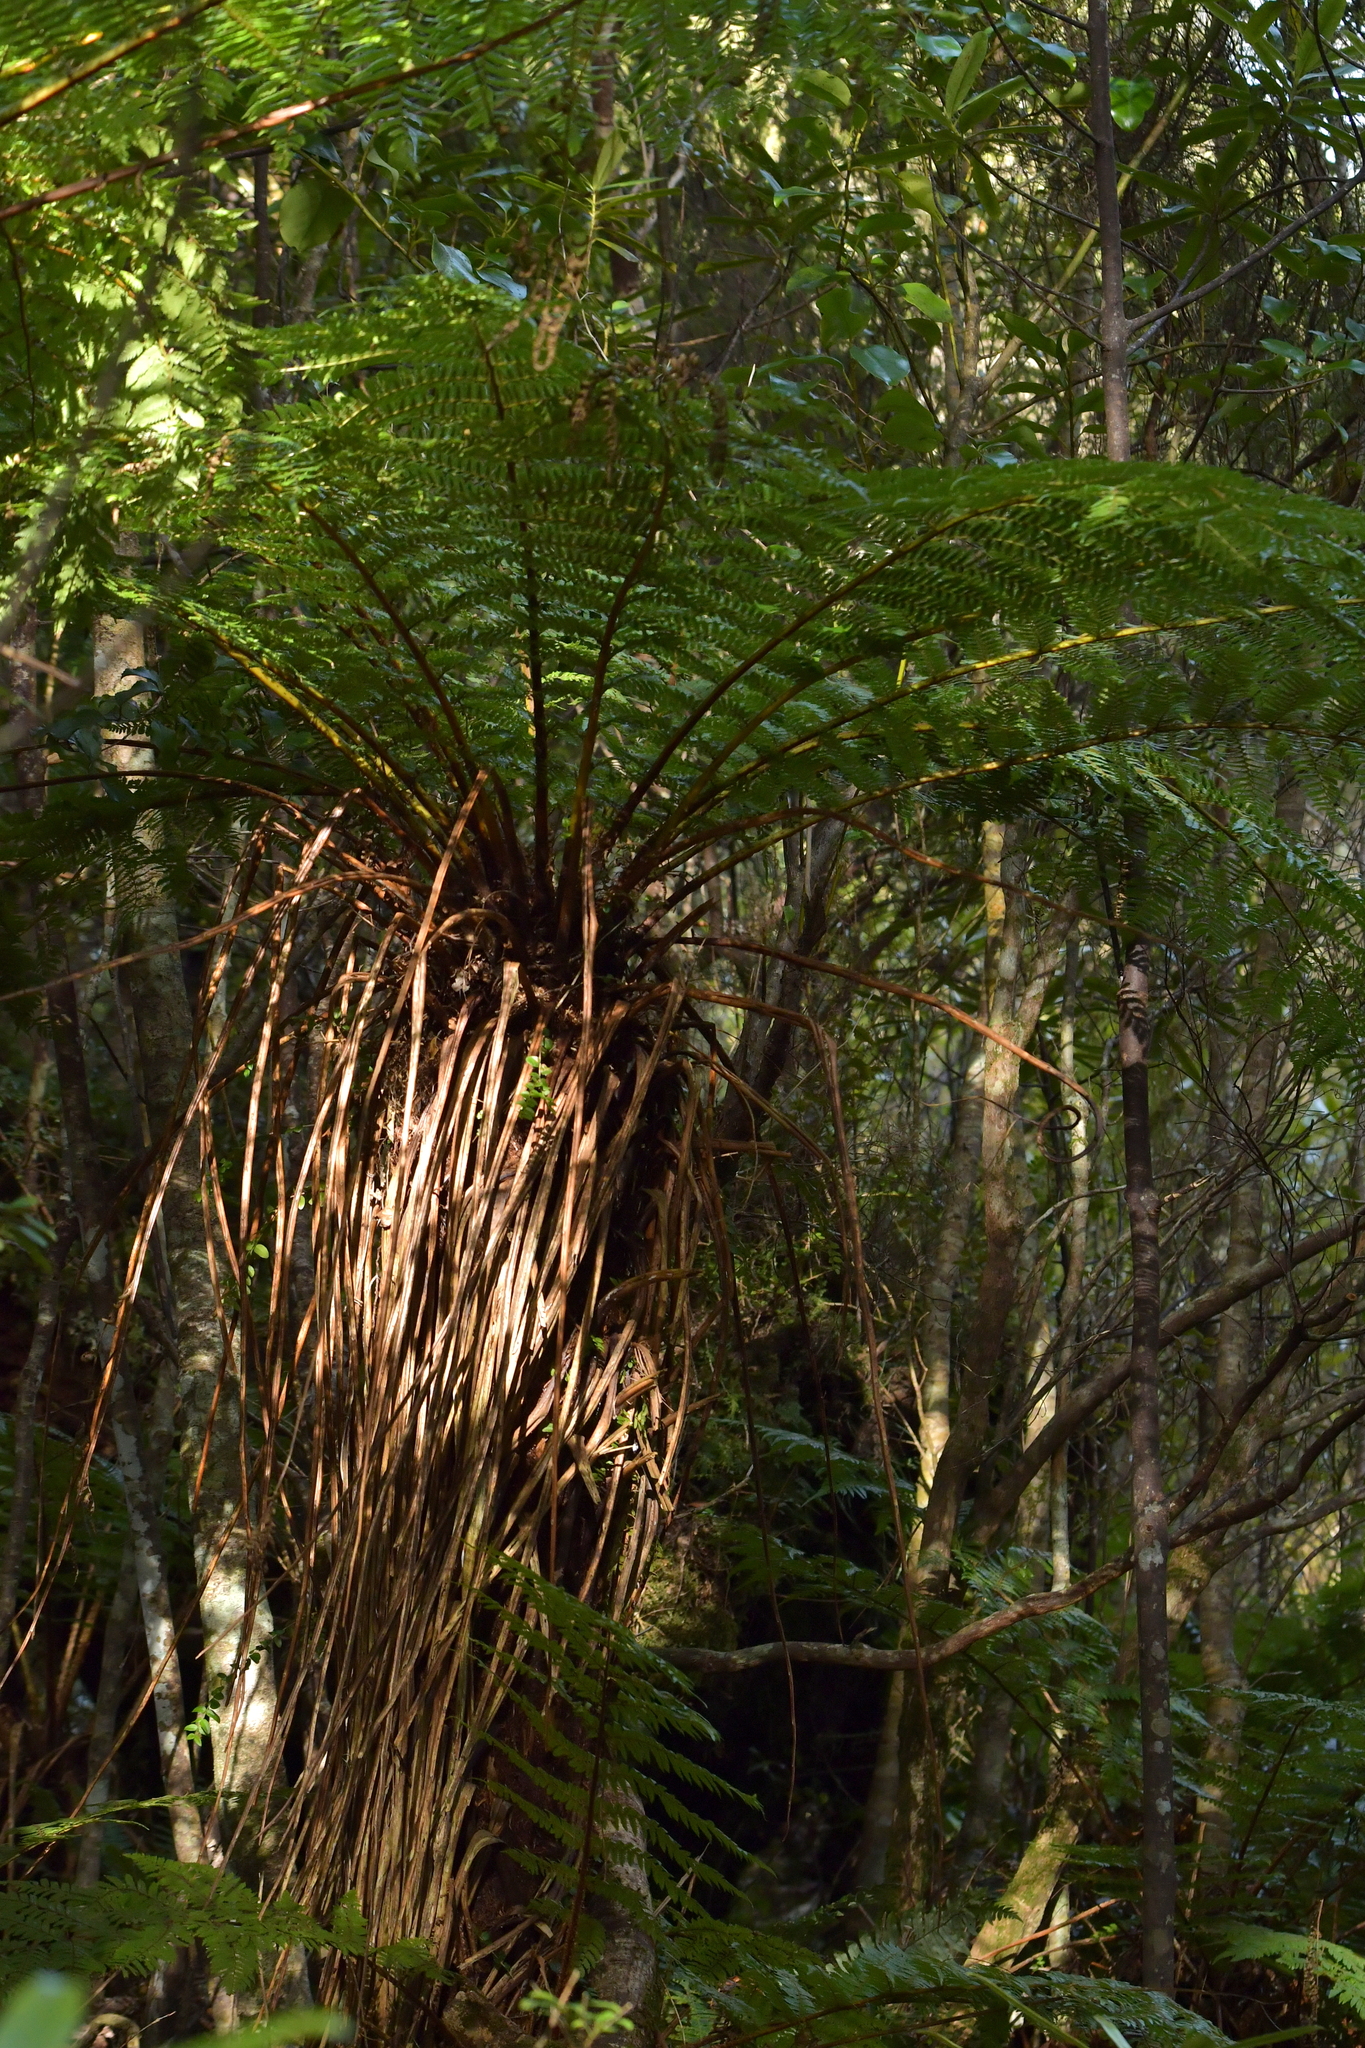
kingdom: Plantae
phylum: Tracheophyta
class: Polypodiopsida
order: Cyatheales
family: Cyatheaceae
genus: Alsophila
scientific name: Alsophila smithii
